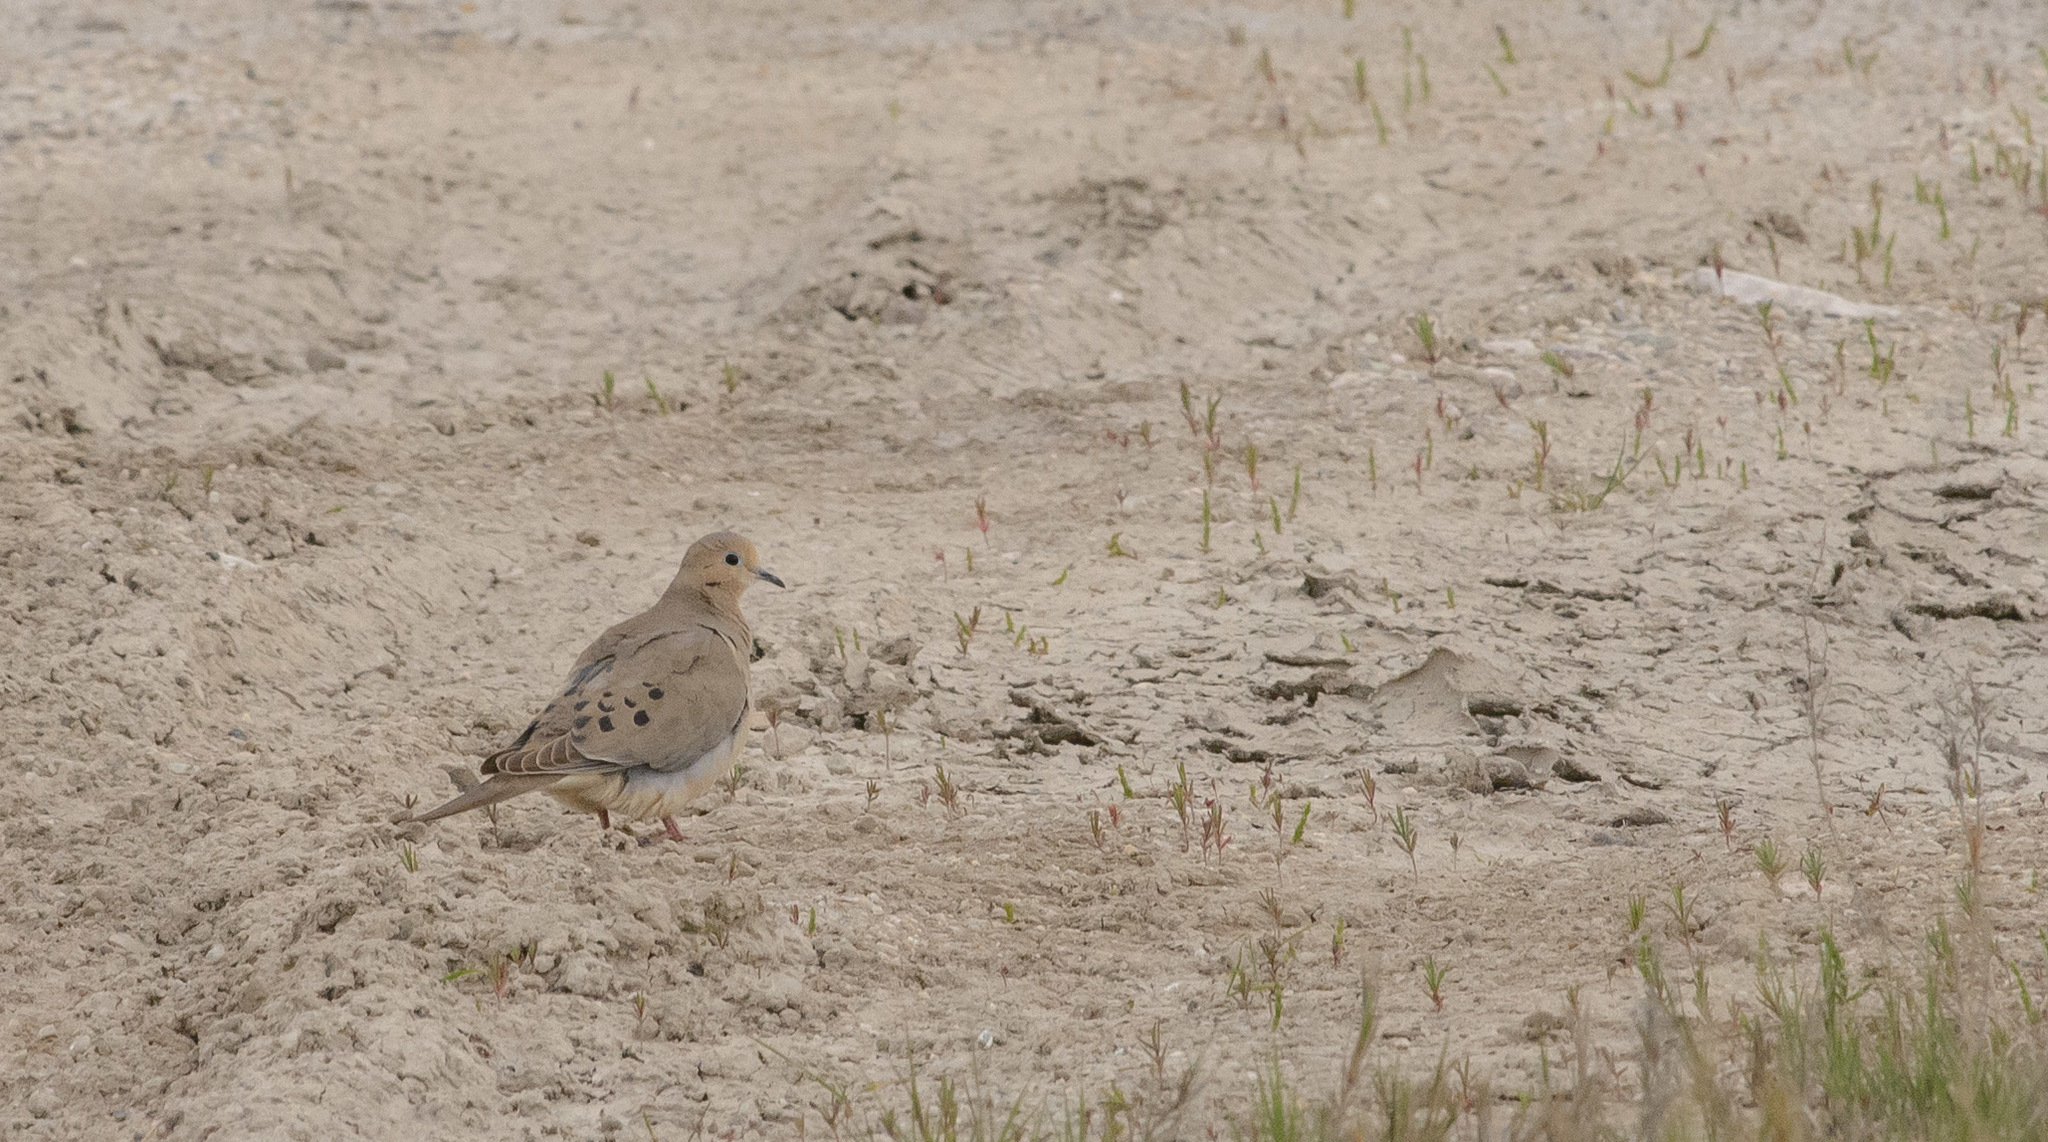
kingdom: Animalia
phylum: Chordata
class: Aves
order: Columbiformes
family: Columbidae
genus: Zenaida
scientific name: Zenaida macroura
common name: Mourning dove
